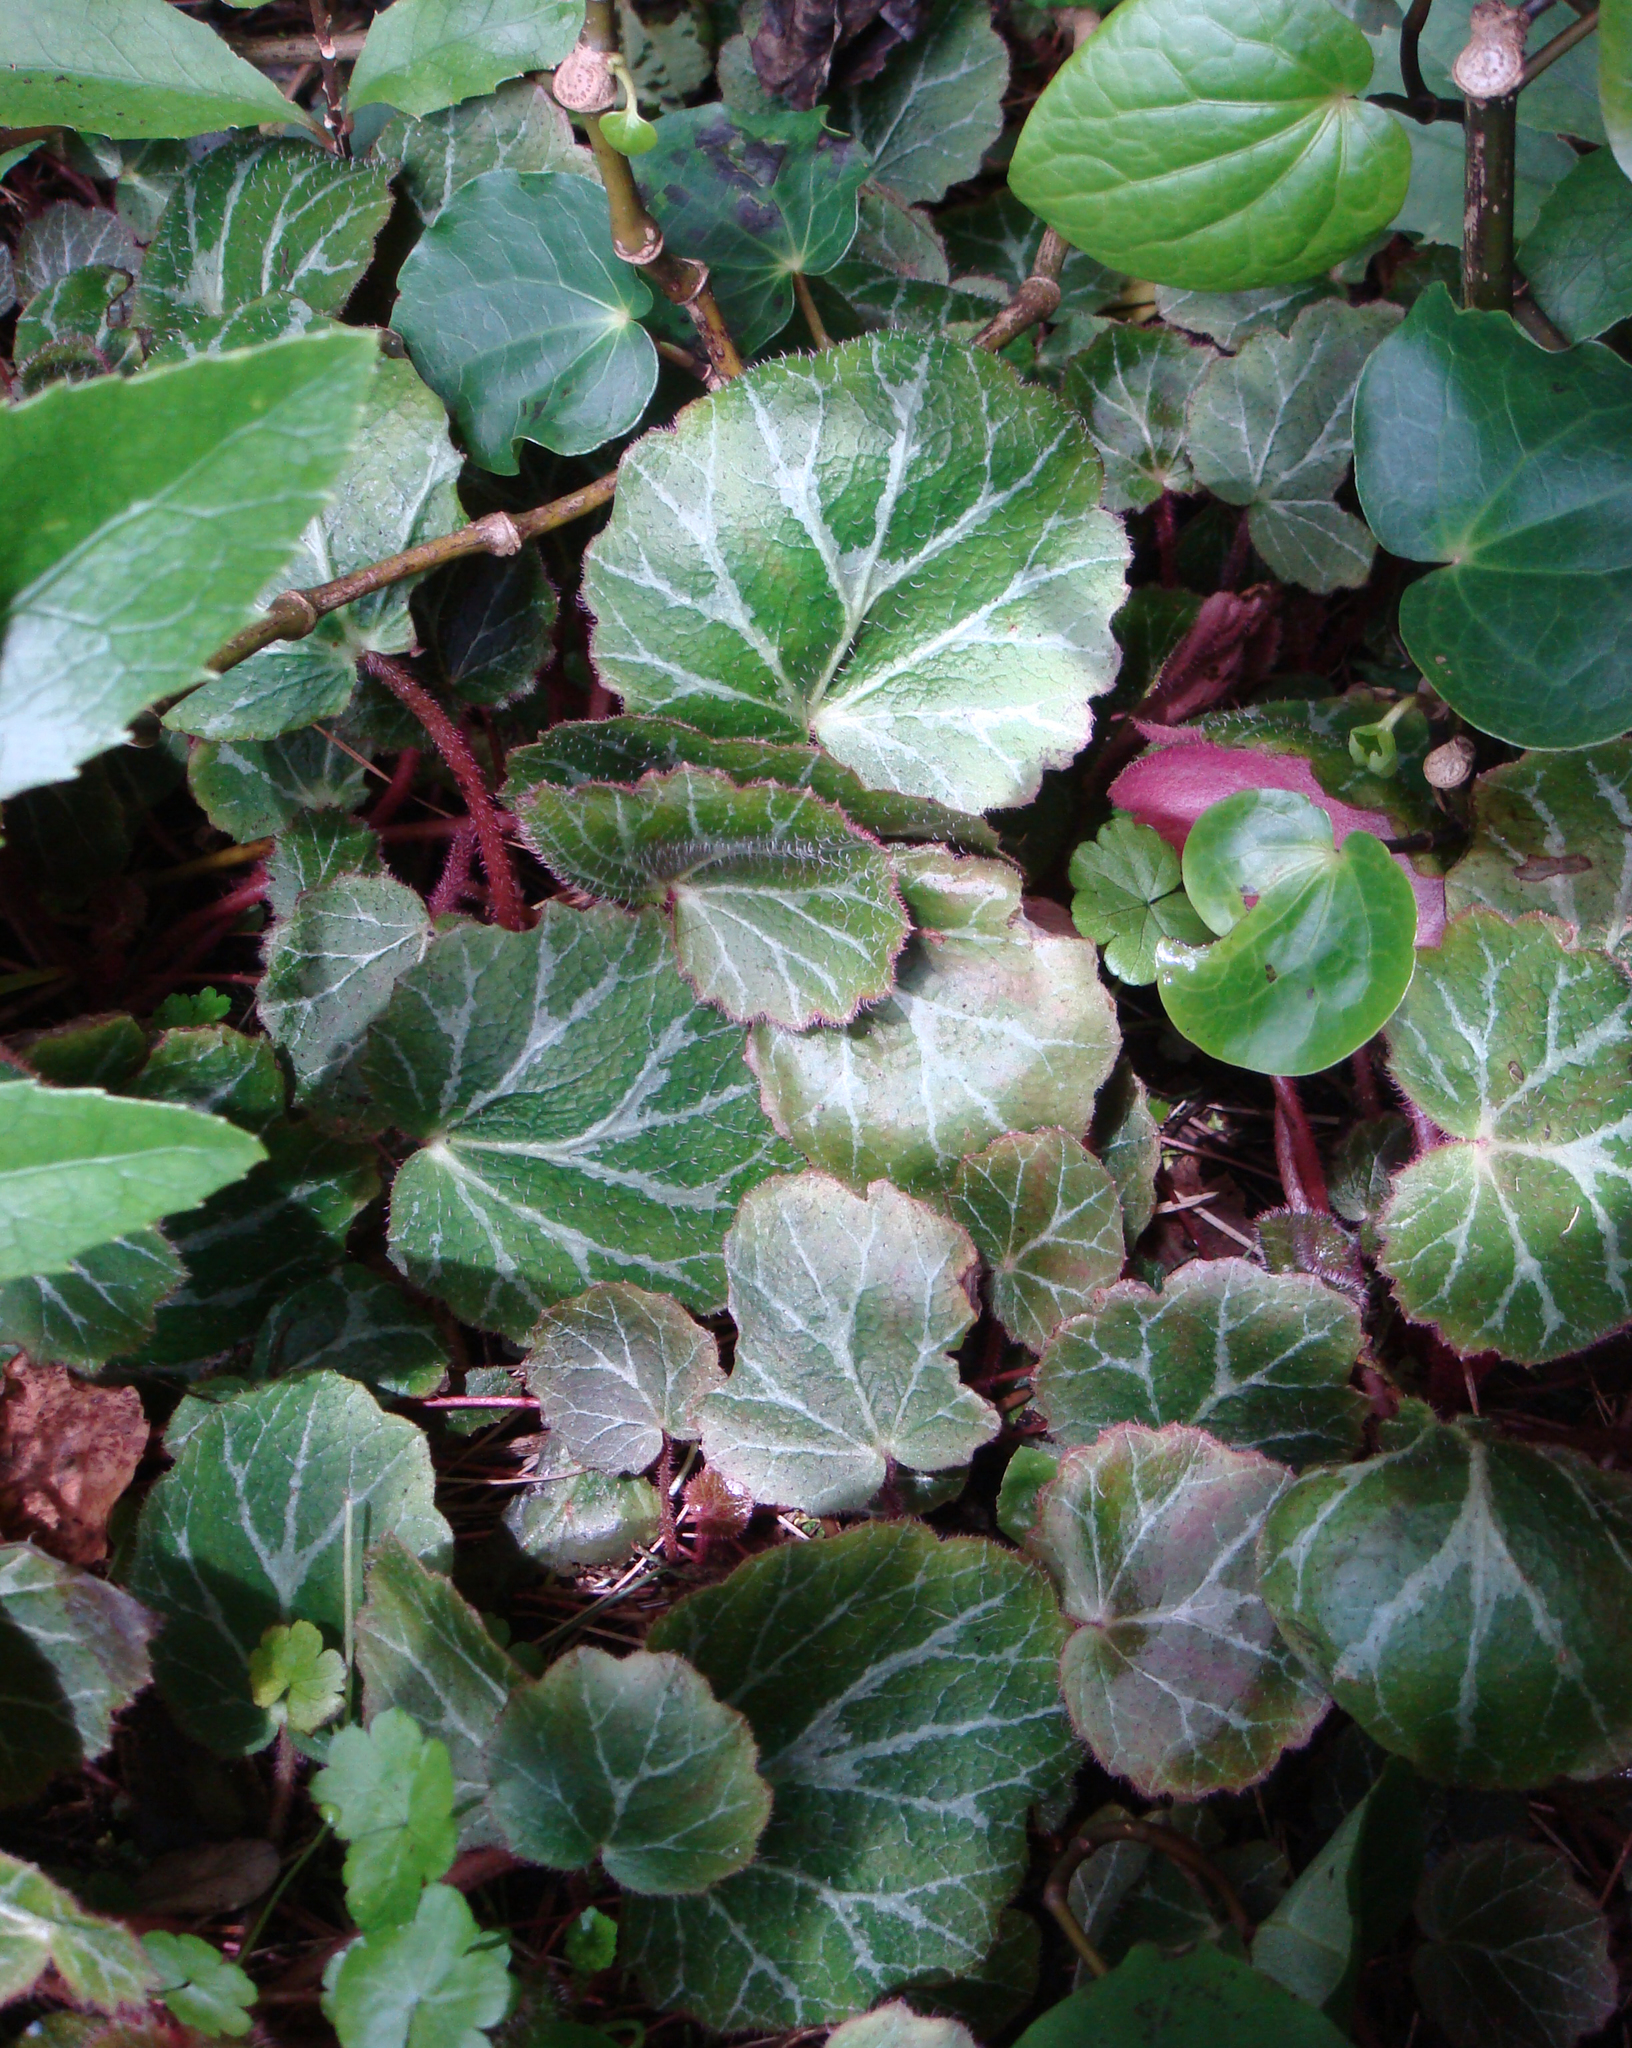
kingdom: Plantae
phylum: Tracheophyta
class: Magnoliopsida
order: Saxifragales
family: Saxifragaceae
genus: Saxifraga
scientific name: Saxifraga stolonifera
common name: Creeping saxifrage
